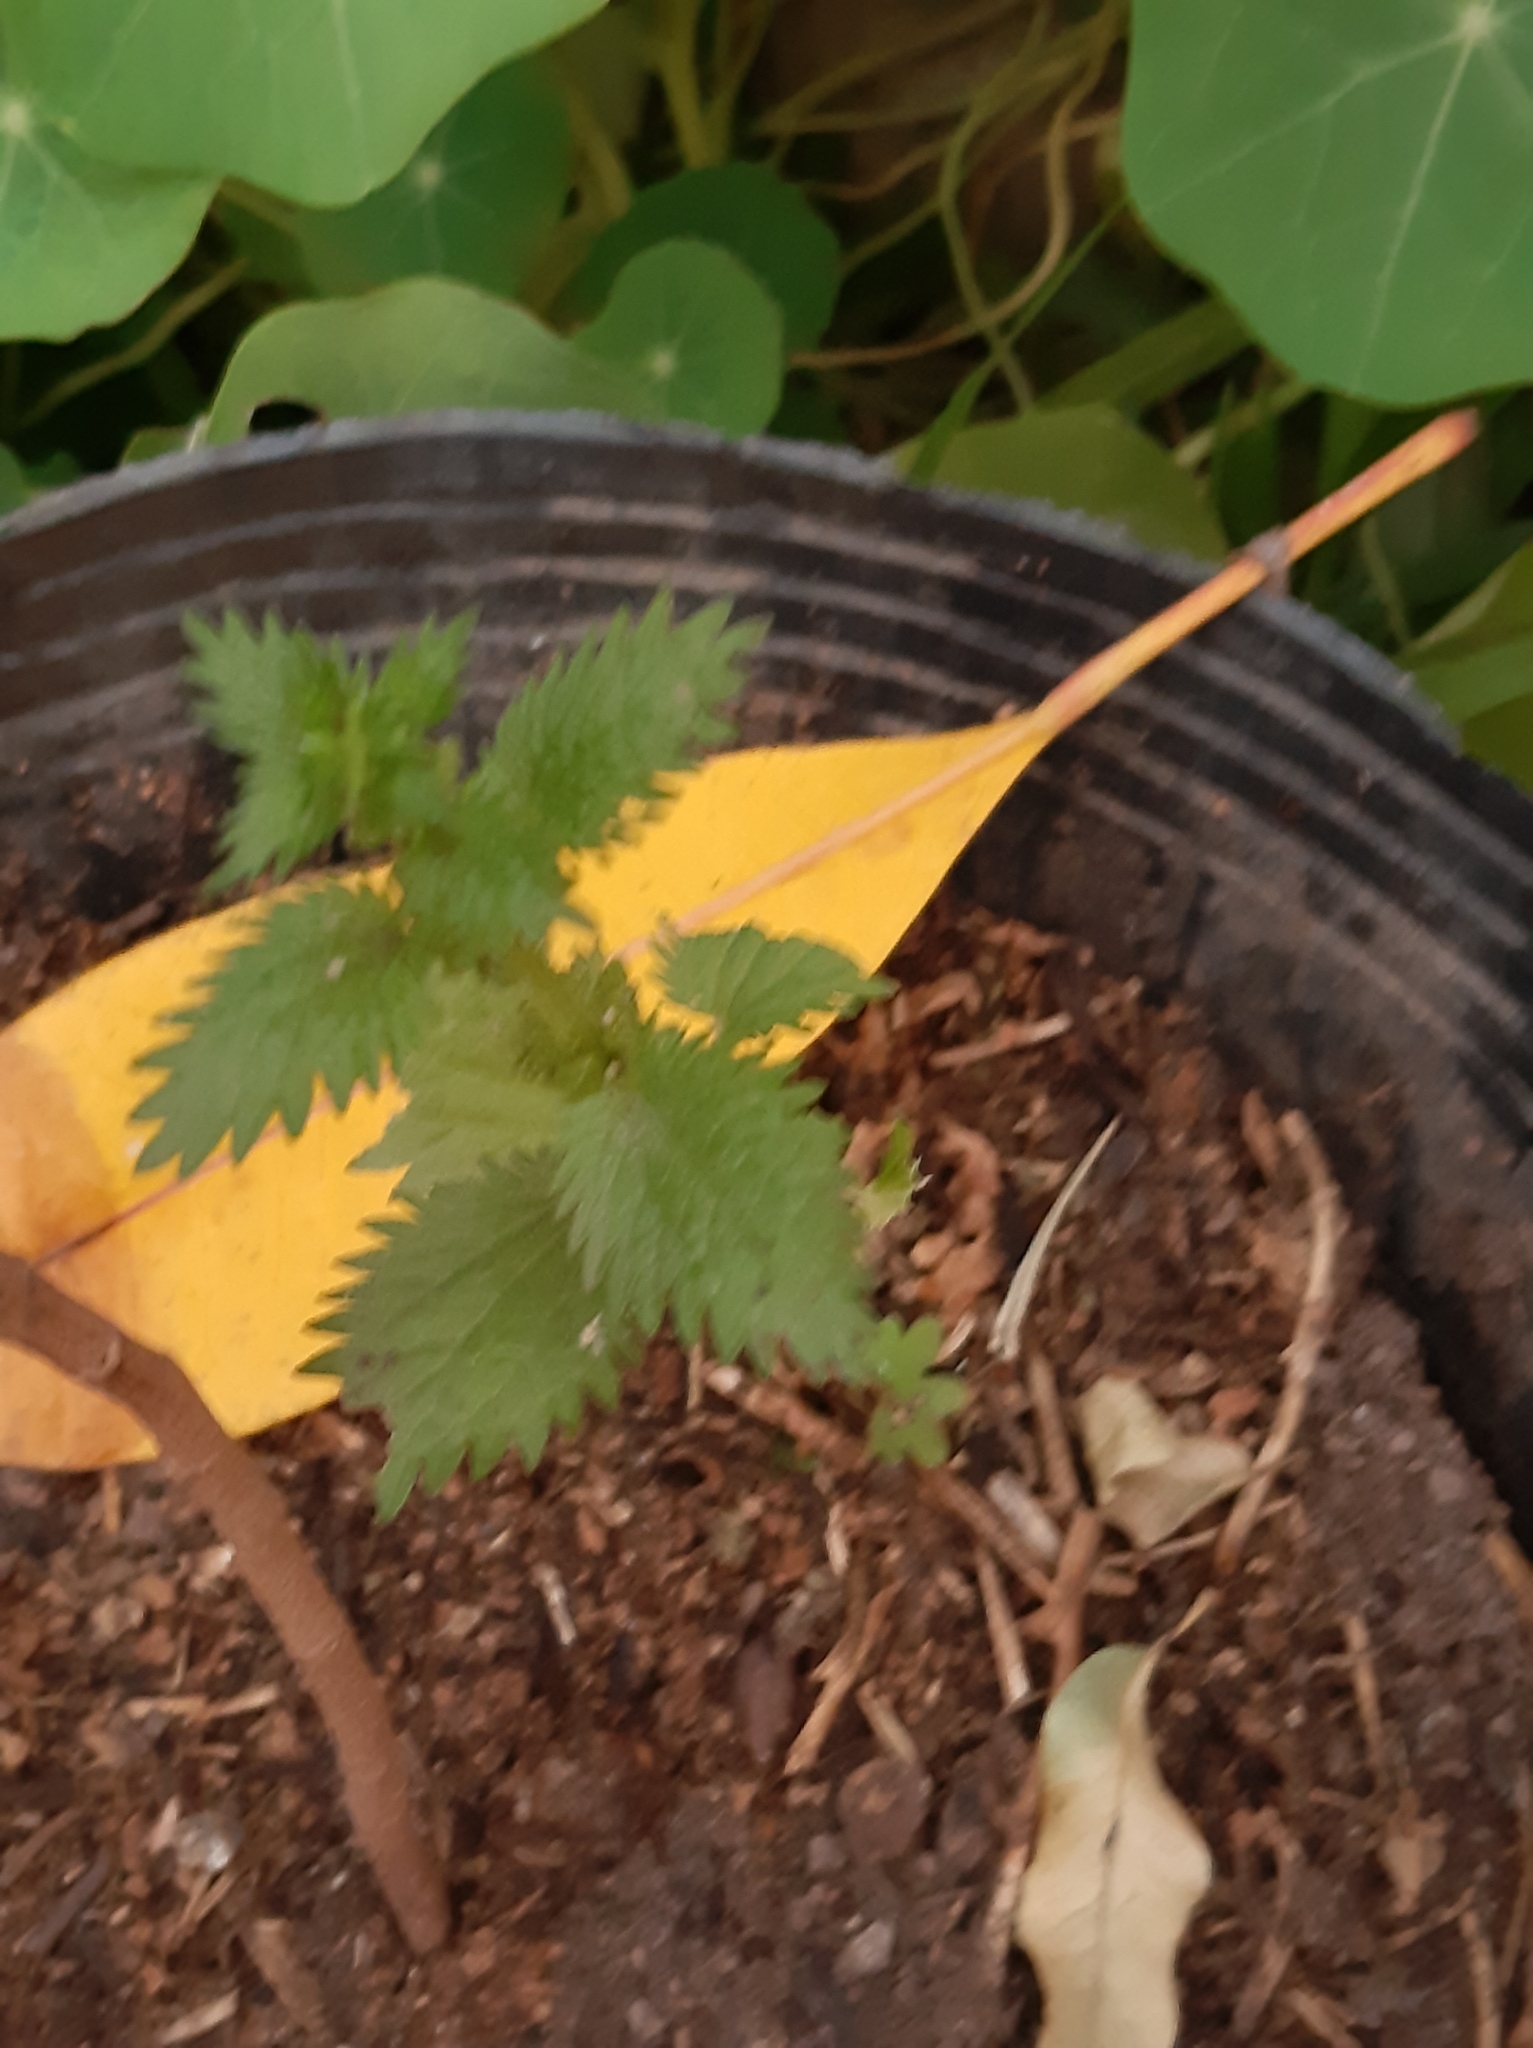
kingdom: Plantae
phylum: Tracheophyta
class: Magnoliopsida
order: Rosales
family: Urticaceae
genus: Urtica
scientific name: Urtica dioica
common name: Common nettle
